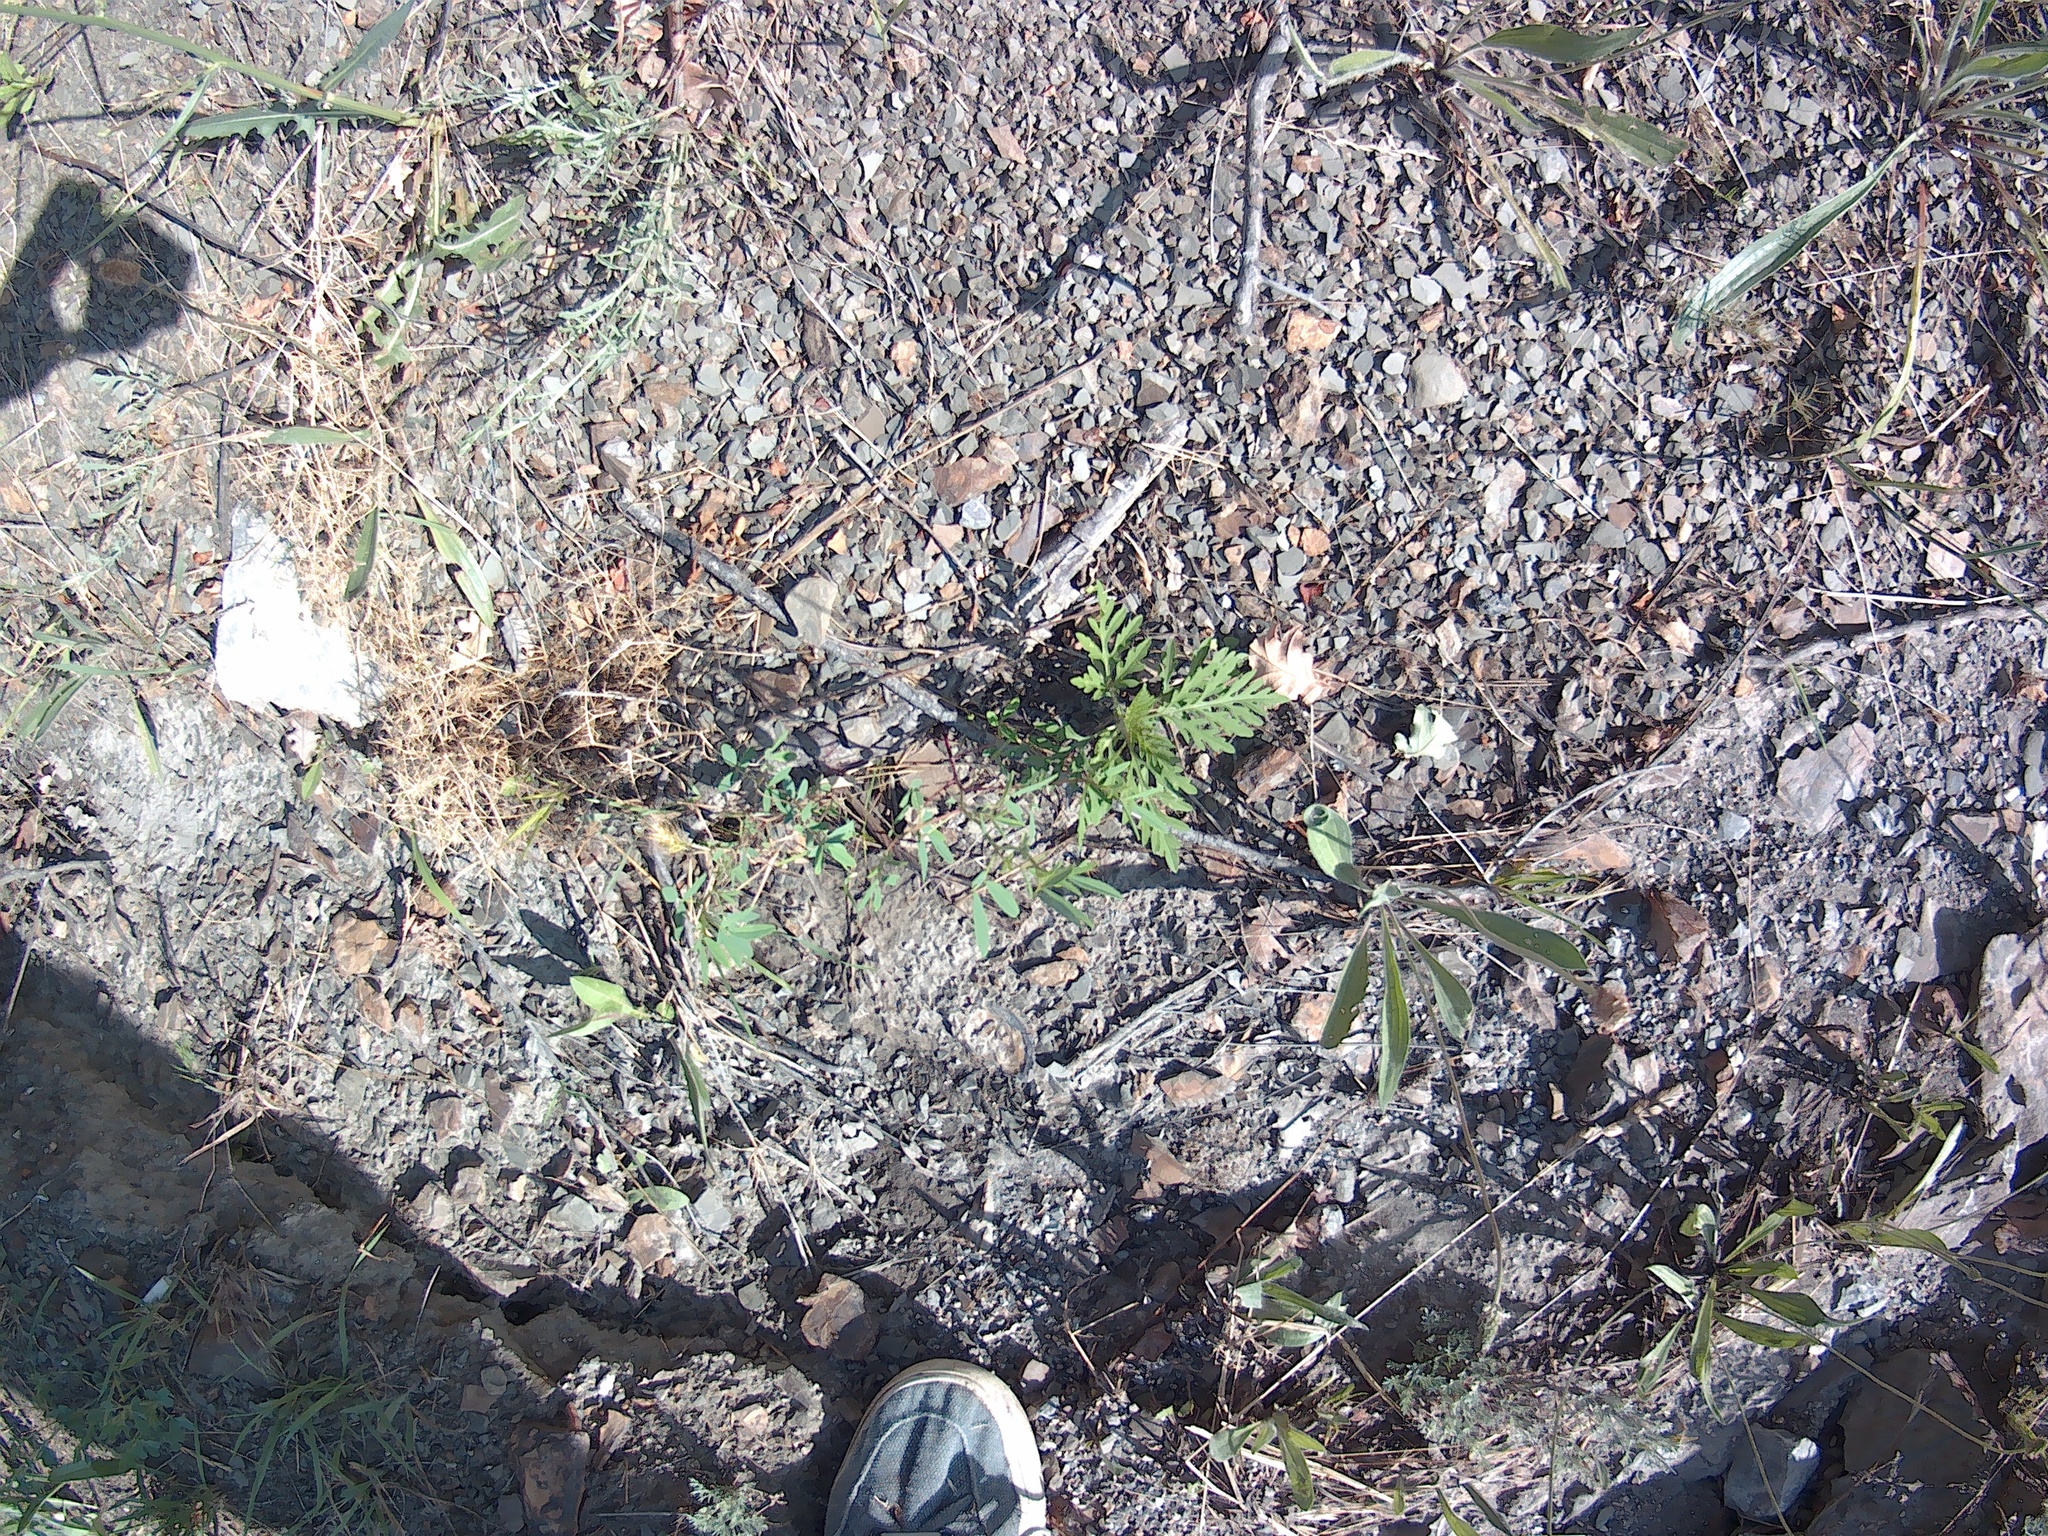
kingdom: Plantae
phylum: Tracheophyta
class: Magnoliopsida
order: Asterales
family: Asteraceae
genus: Ambrosia
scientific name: Ambrosia artemisiifolia
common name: Annual ragweed
